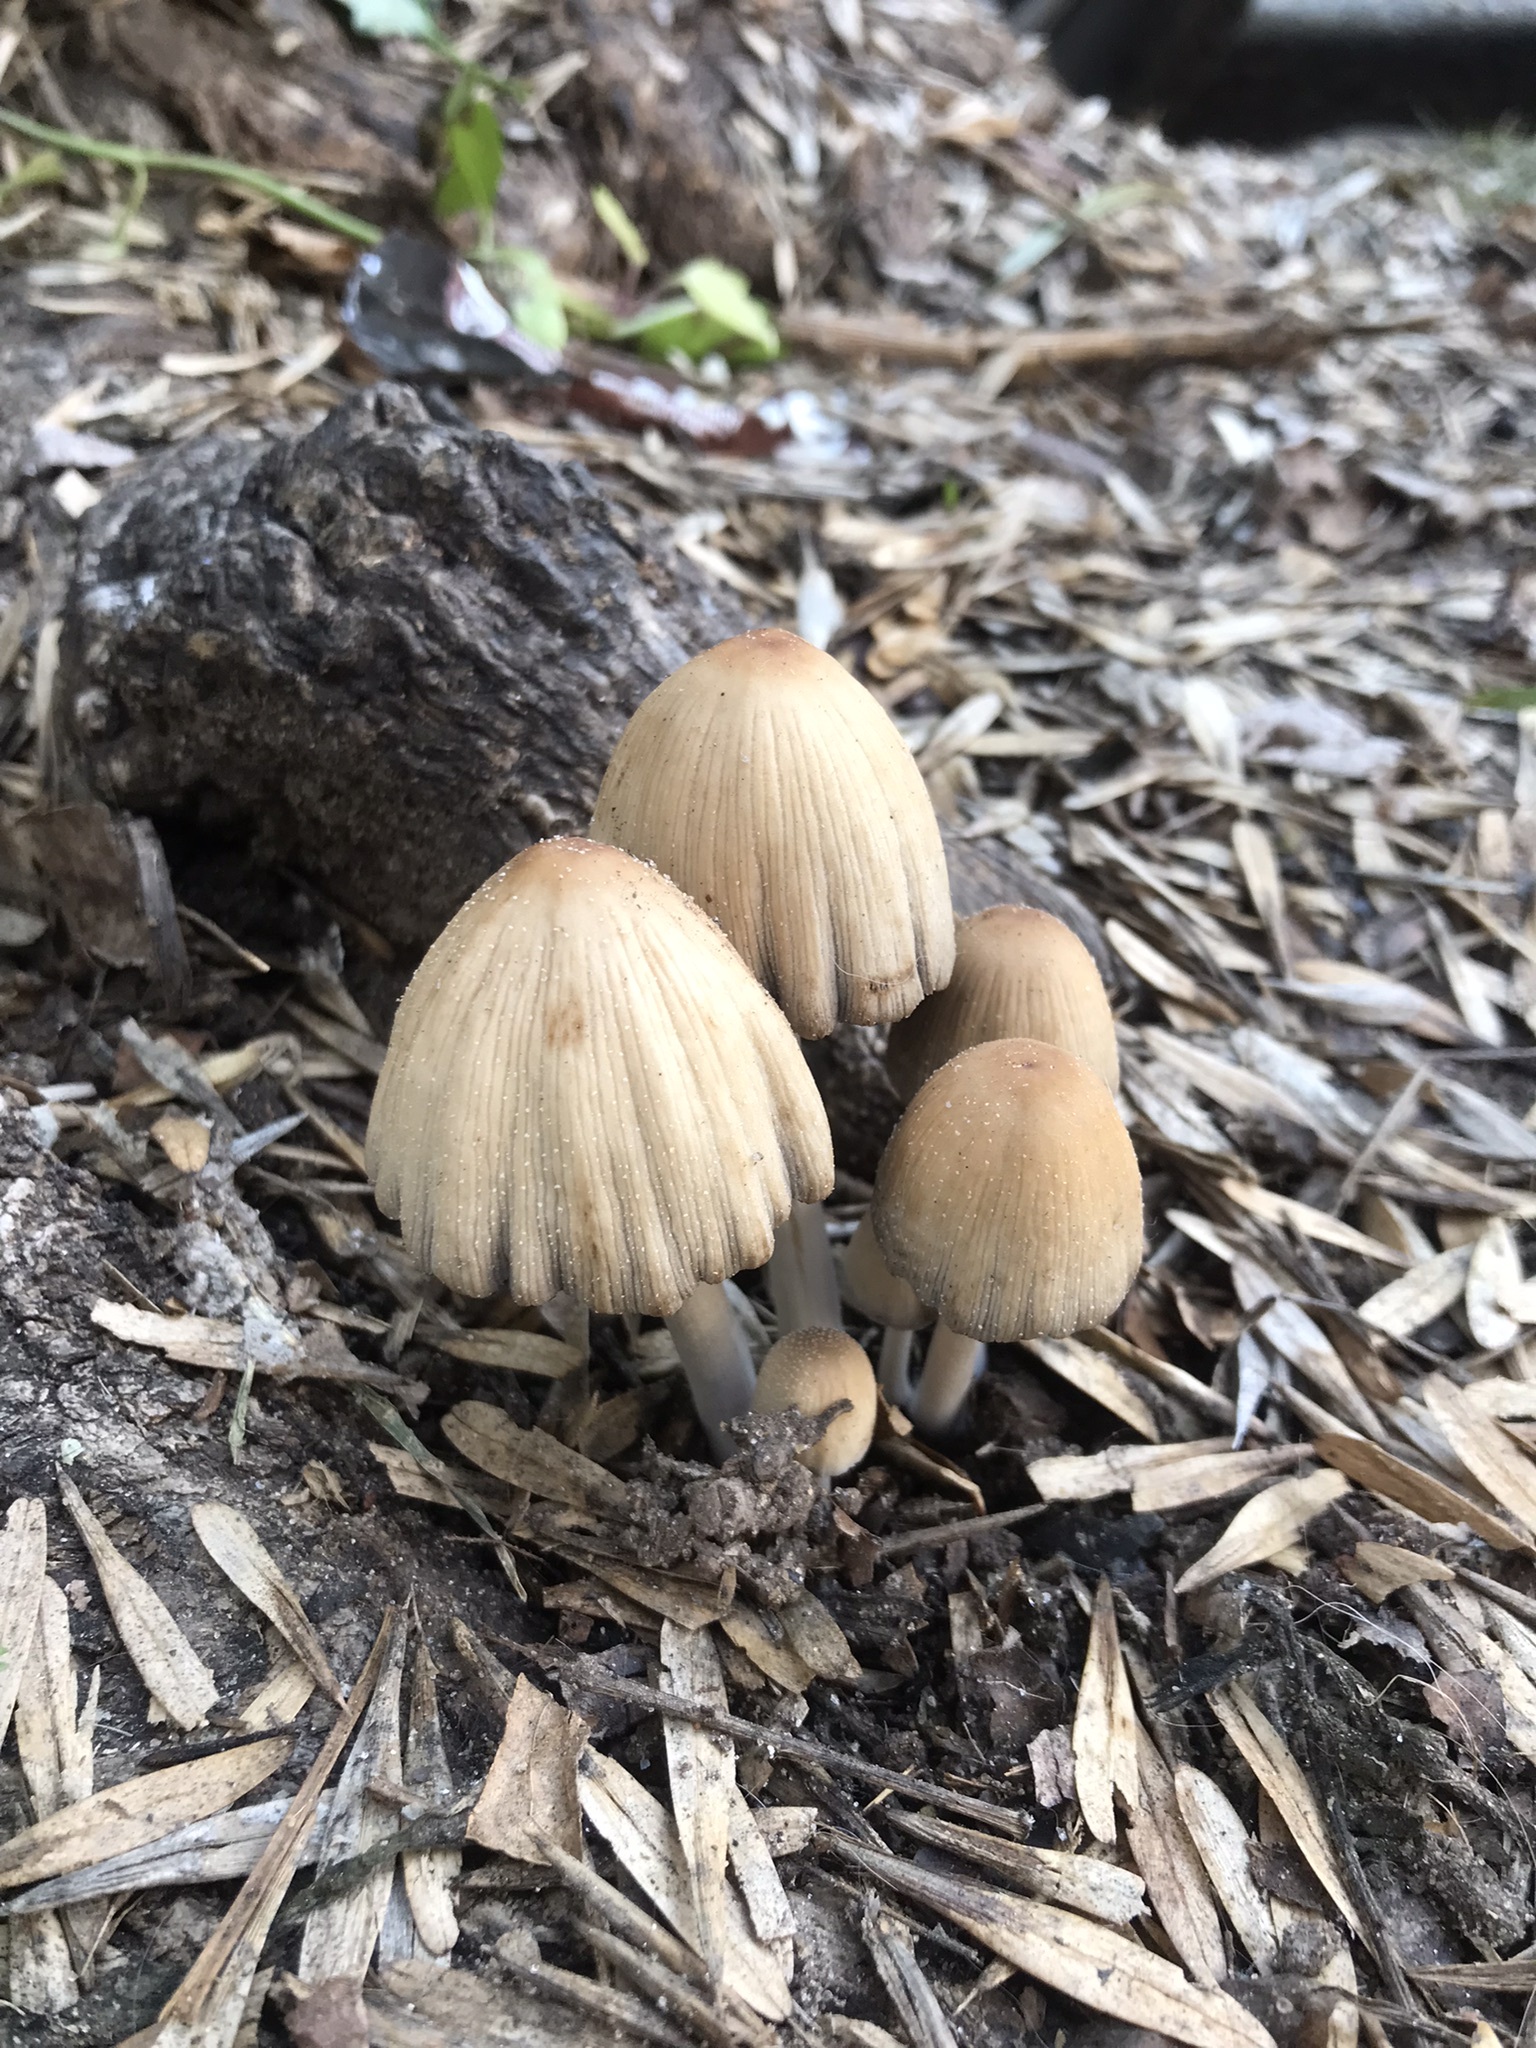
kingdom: Fungi
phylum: Basidiomycota
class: Agaricomycetes
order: Agaricales
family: Psathyrellaceae
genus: Coprinellus
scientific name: Coprinellus micaceus
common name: Glistening ink-cap
